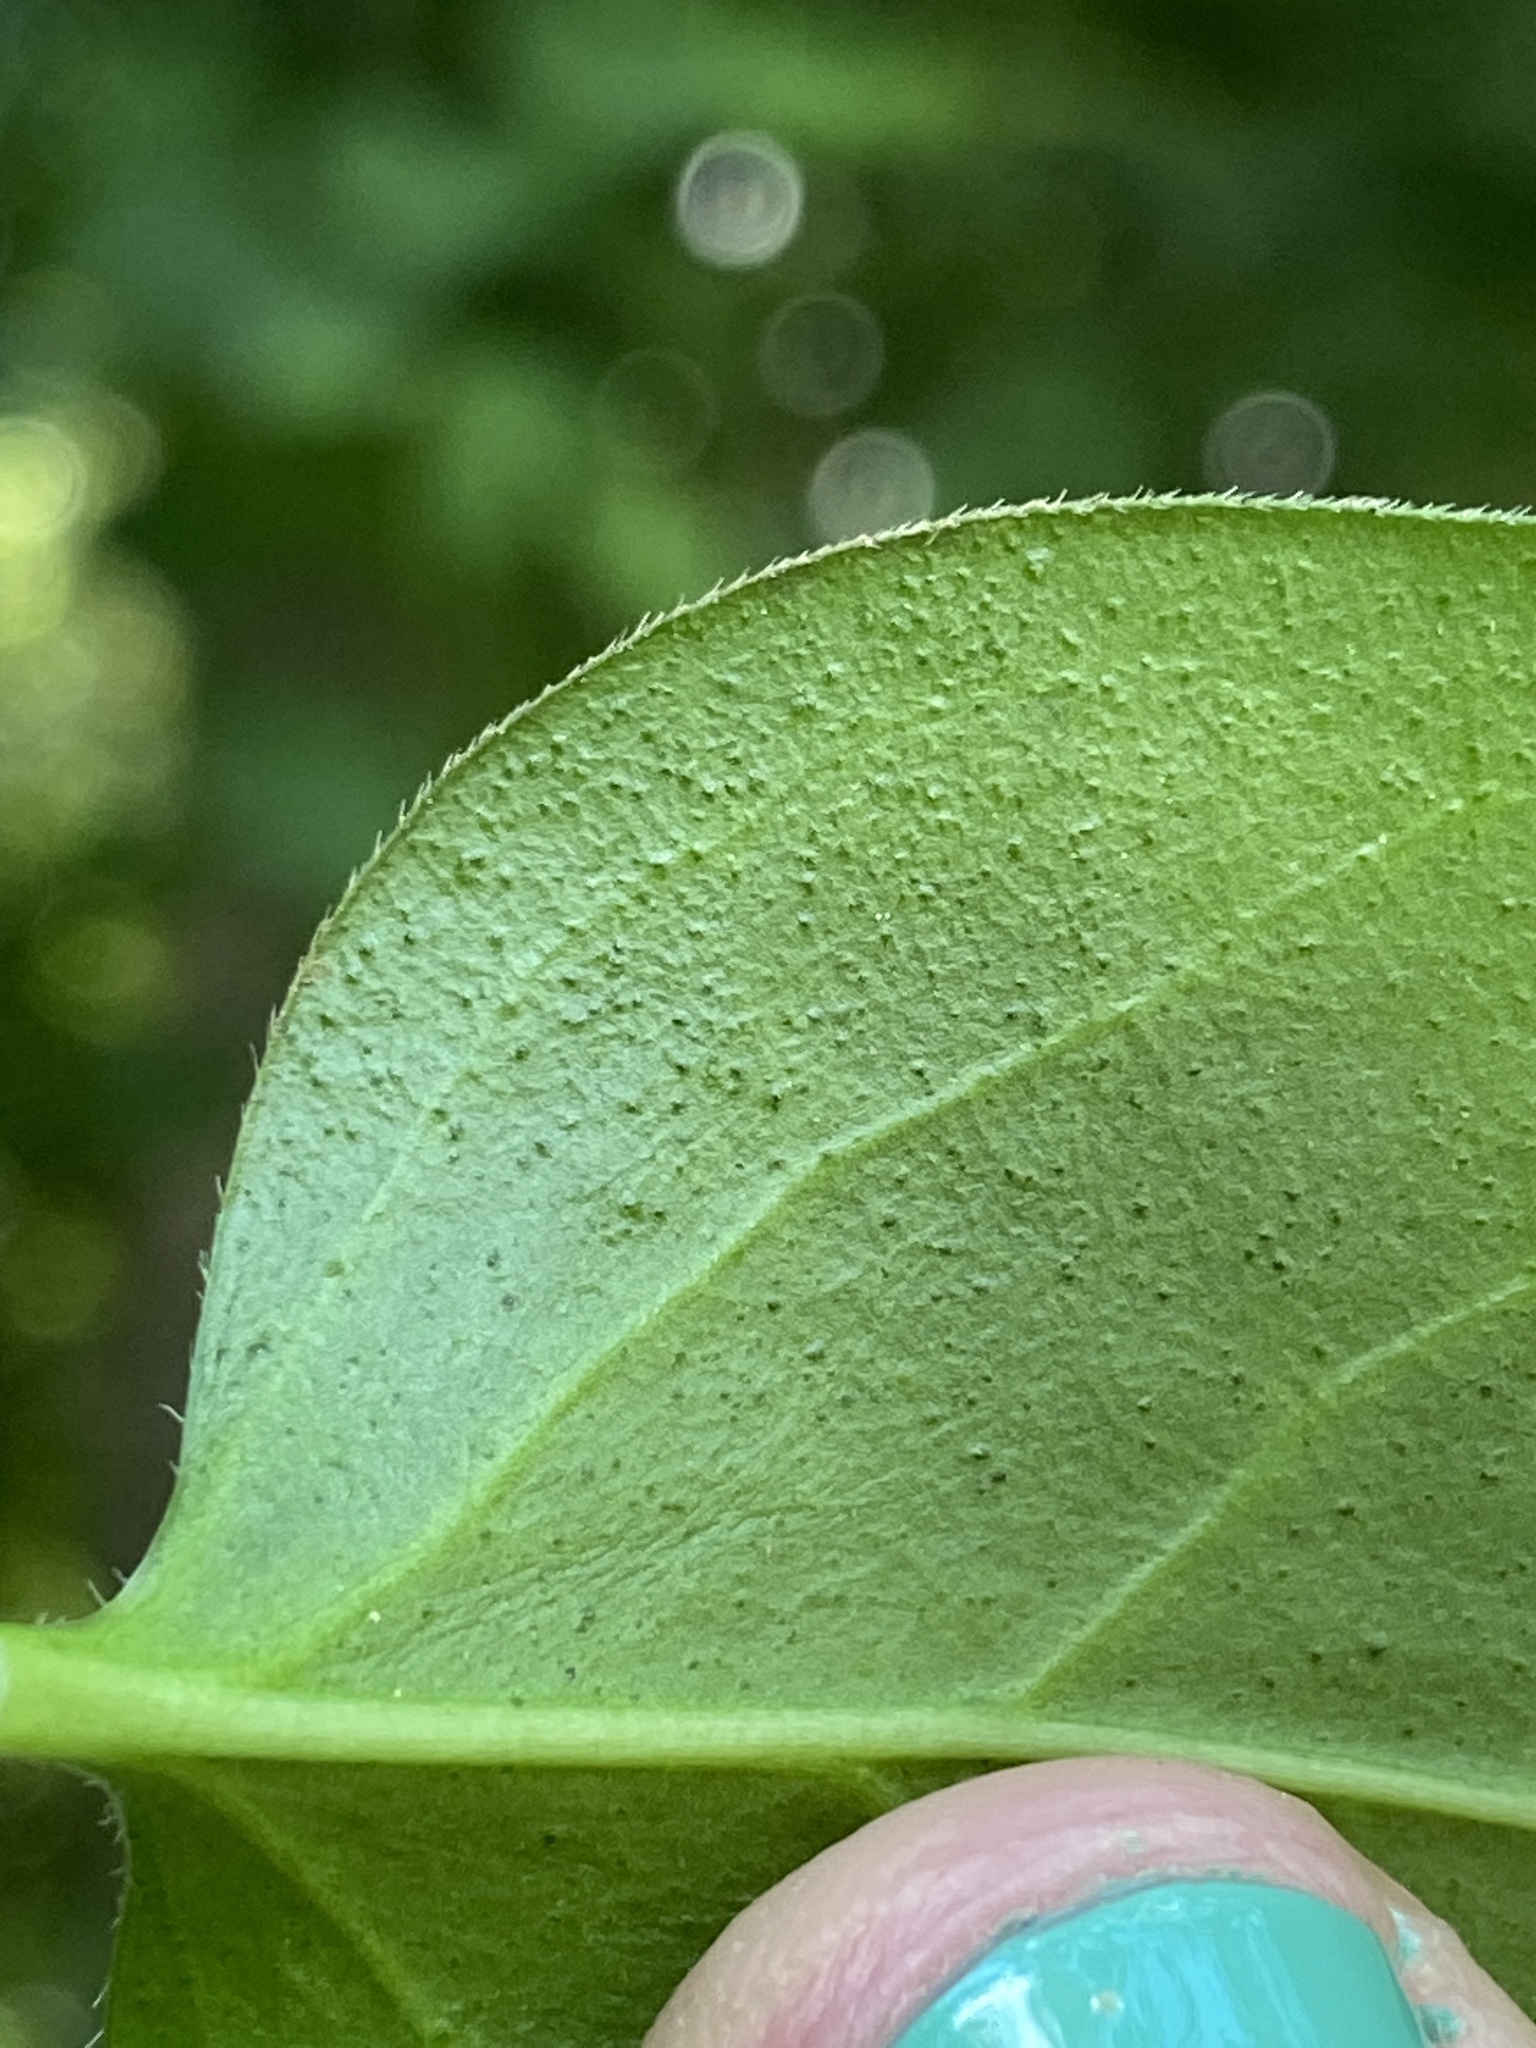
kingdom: Plantae
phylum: Tracheophyta
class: Magnoliopsida
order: Gentianales
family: Apocynaceae
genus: Vinca
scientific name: Vinca major
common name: Greater periwinkle
